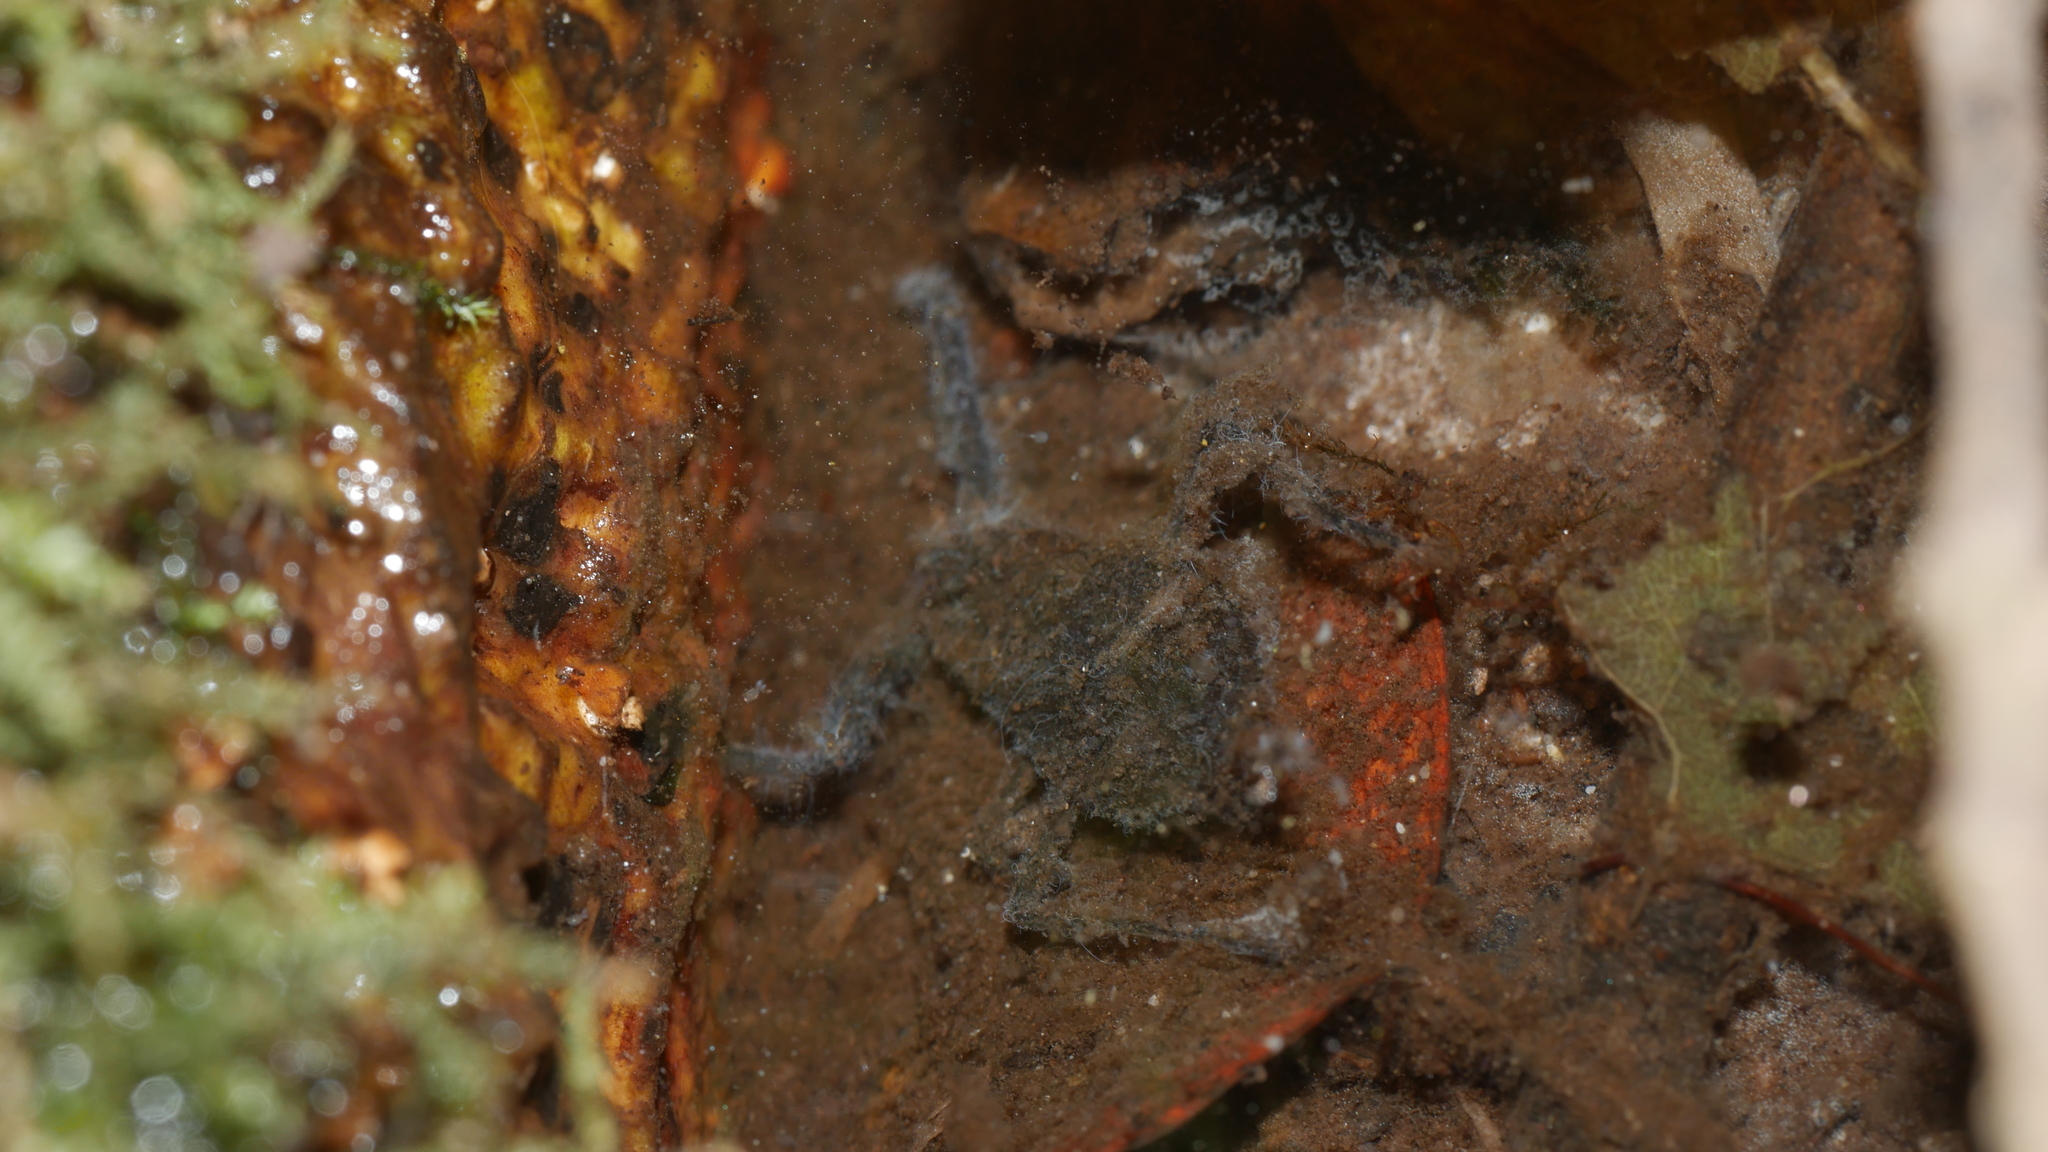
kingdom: Animalia
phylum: Arthropoda
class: Insecta
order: Hemiptera
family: Nepidae
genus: Nepa
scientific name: Nepa apiculata
